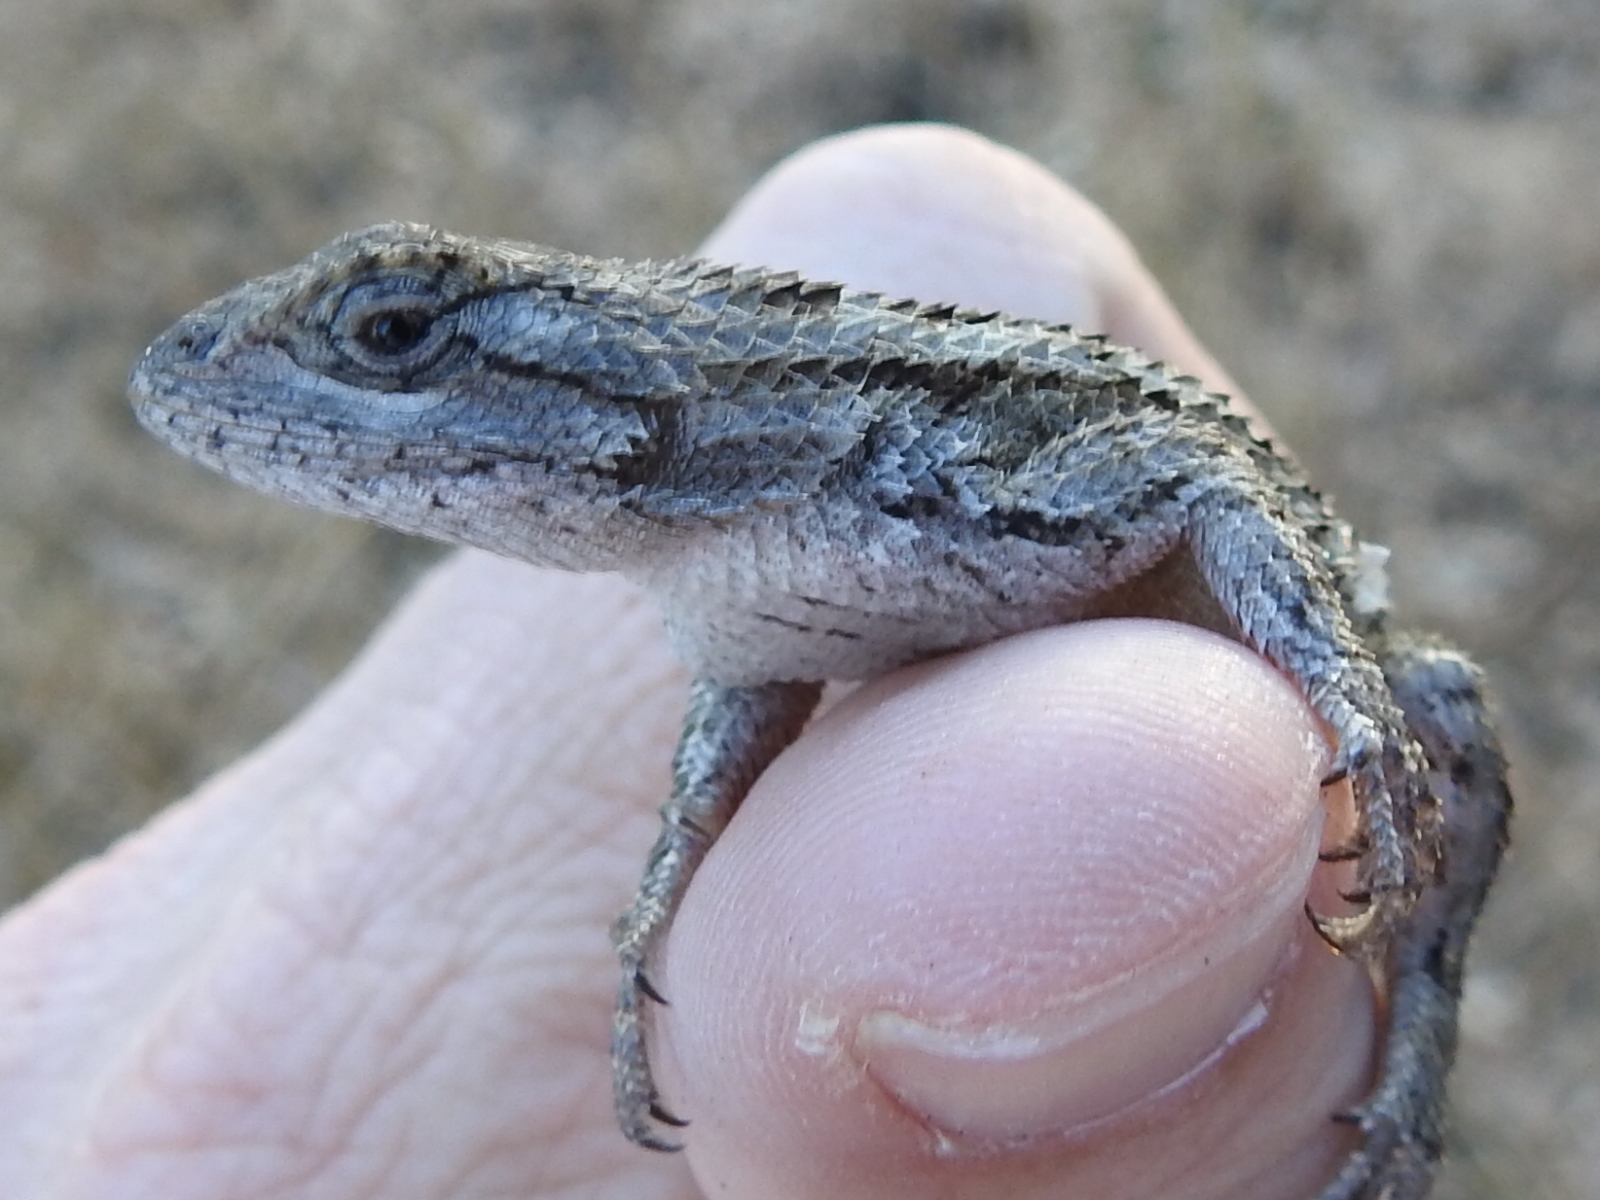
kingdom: Animalia
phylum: Chordata
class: Squamata
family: Phrynosomatidae
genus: Sceloporus
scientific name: Sceloporus olivaceus
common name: Texas spiny lizard
